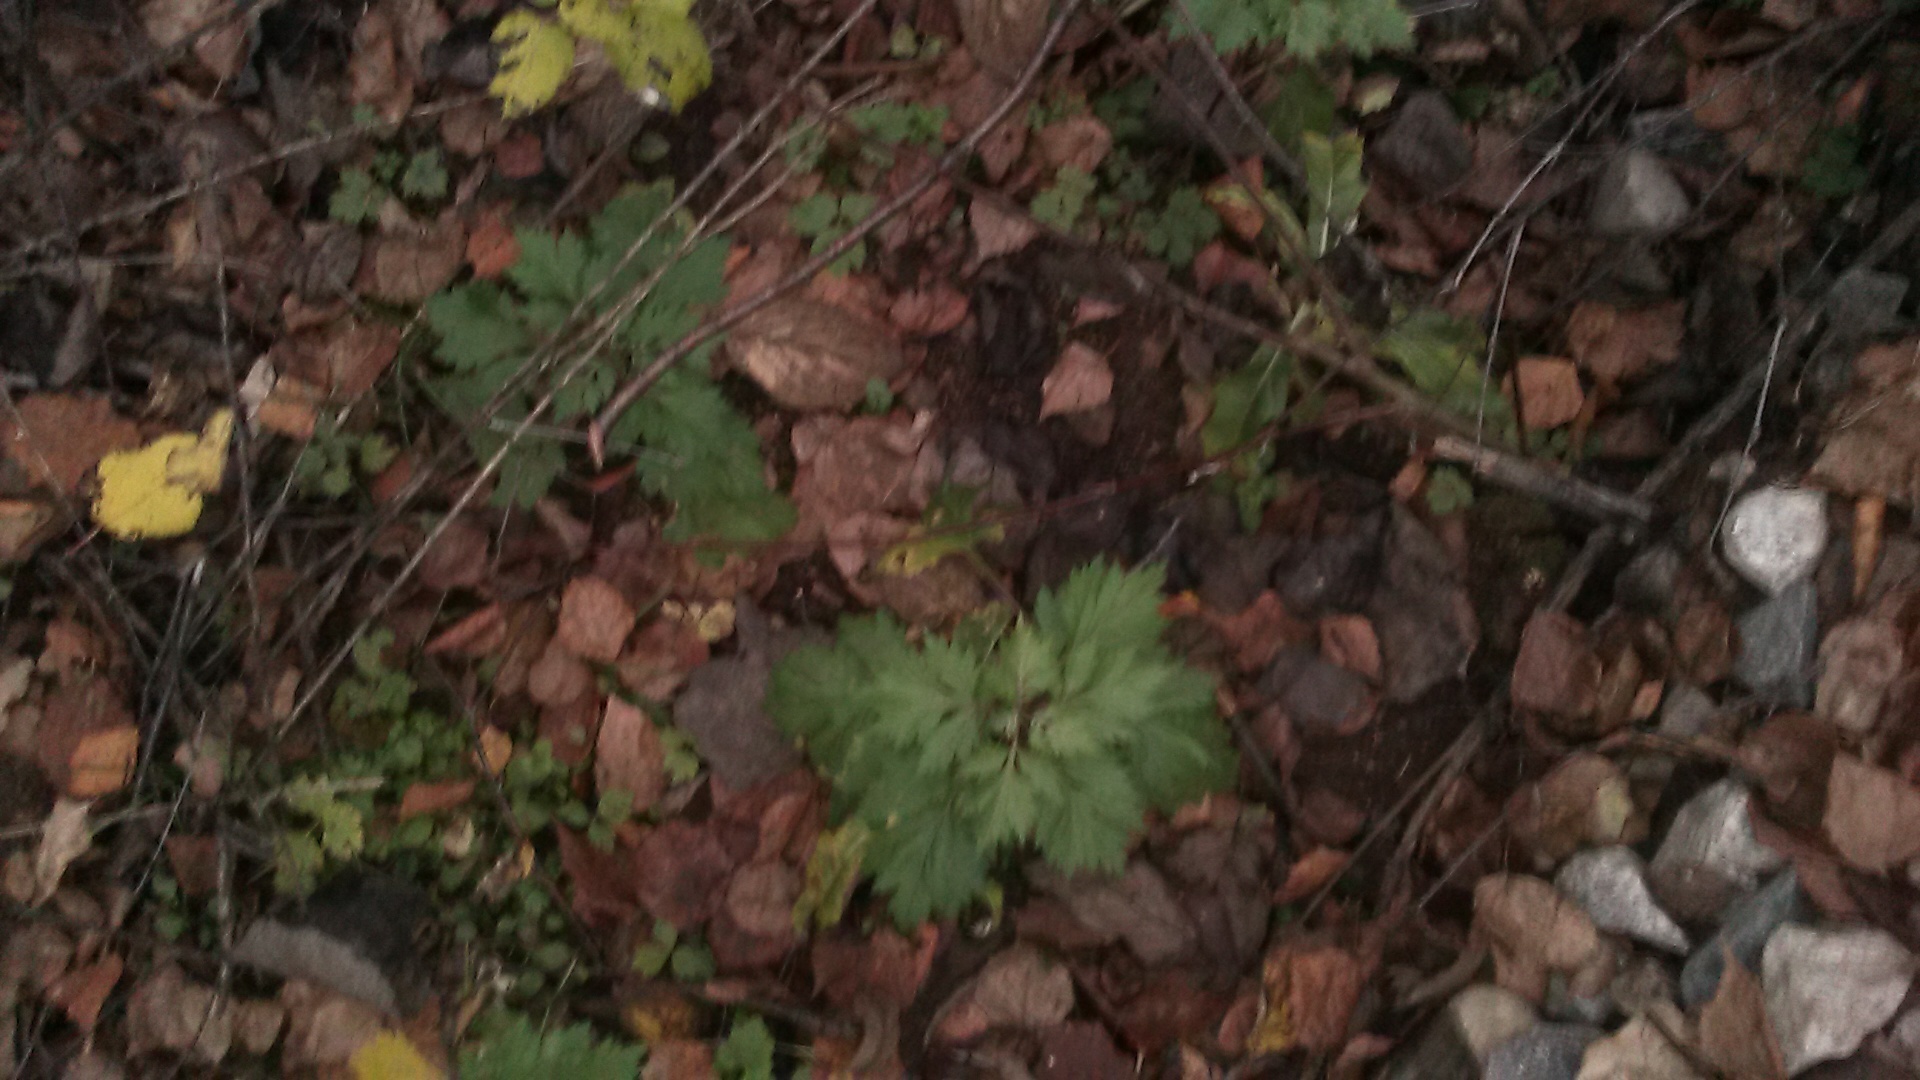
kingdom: Plantae
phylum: Tracheophyta
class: Magnoliopsida
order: Asterales
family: Asteraceae
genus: Artemisia
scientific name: Artemisia vulgaris
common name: Mugwort
